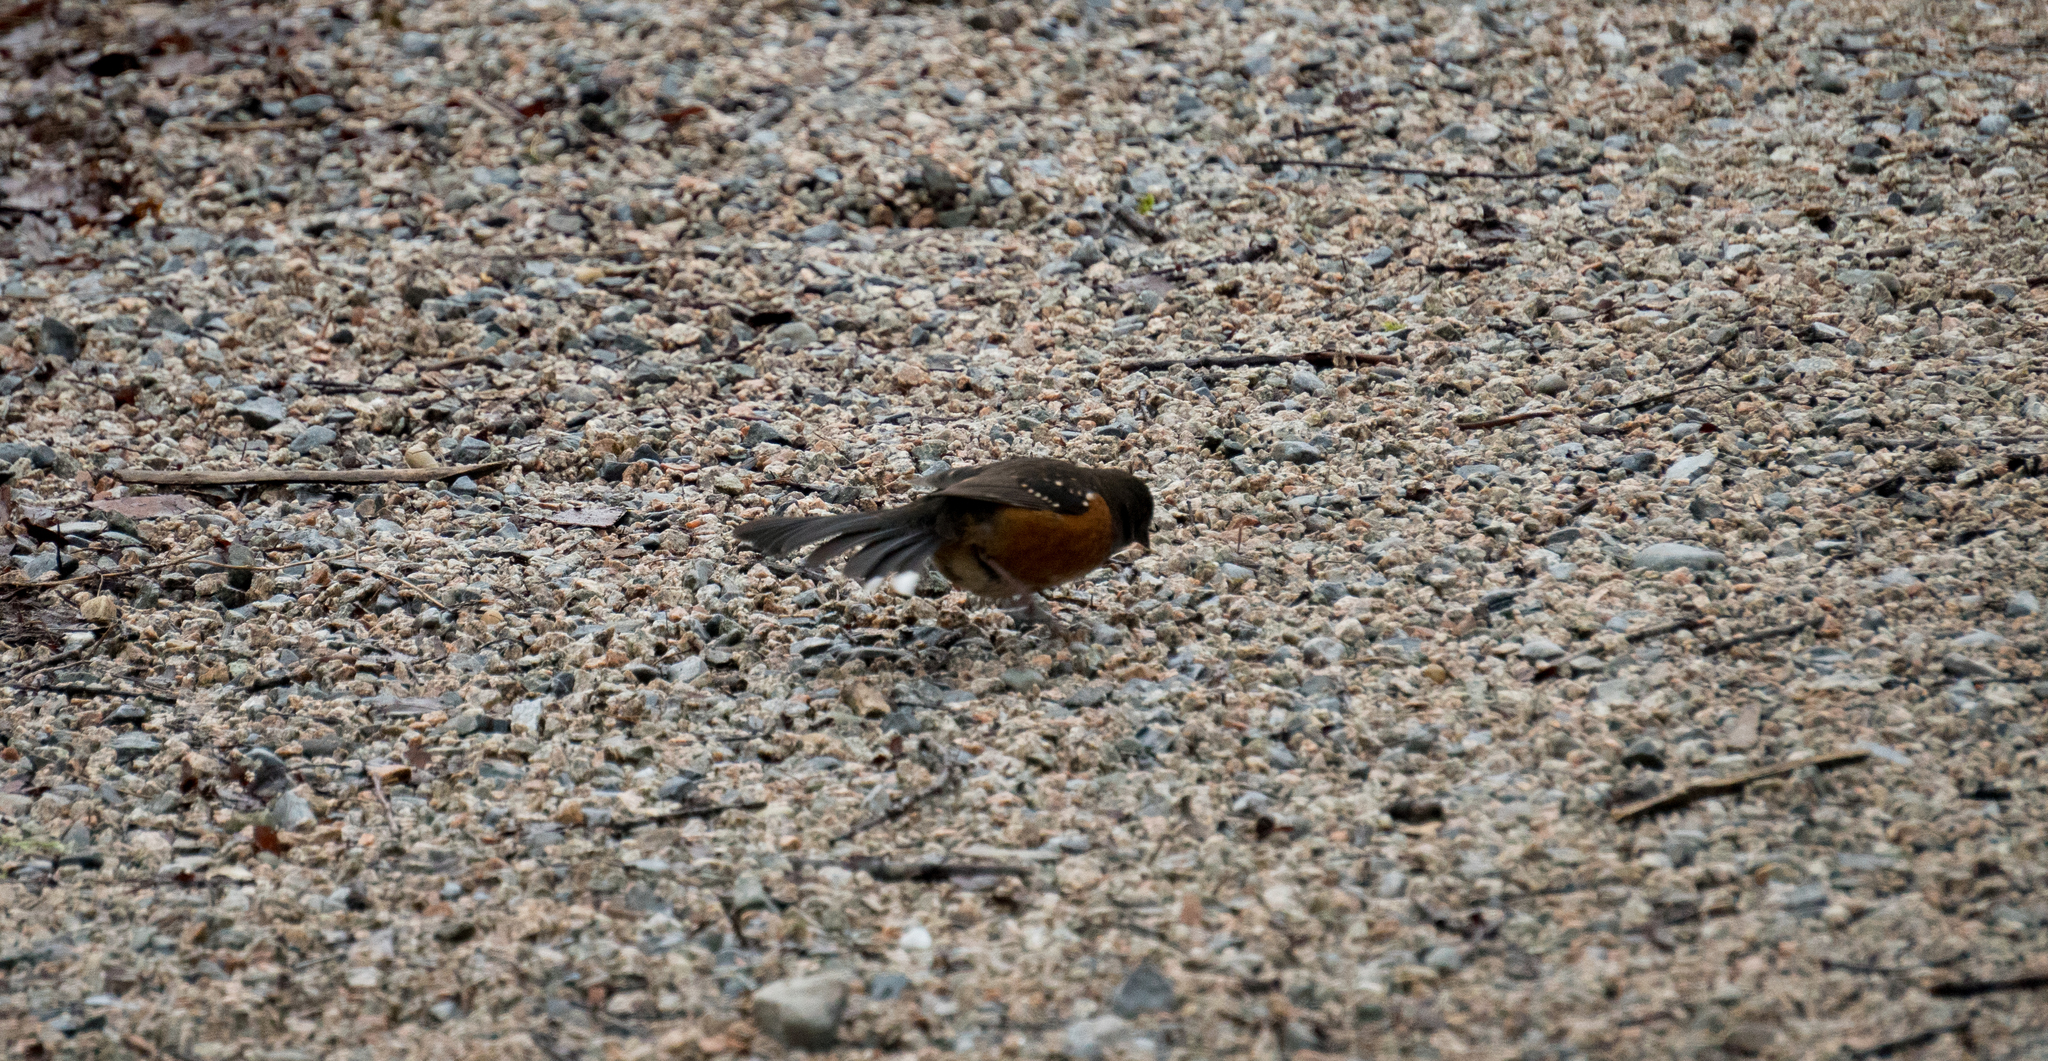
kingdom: Animalia
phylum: Chordata
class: Aves
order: Passeriformes
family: Passerellidae
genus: Pipilo
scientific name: Pipilo maculatus
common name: Spotted towhee
